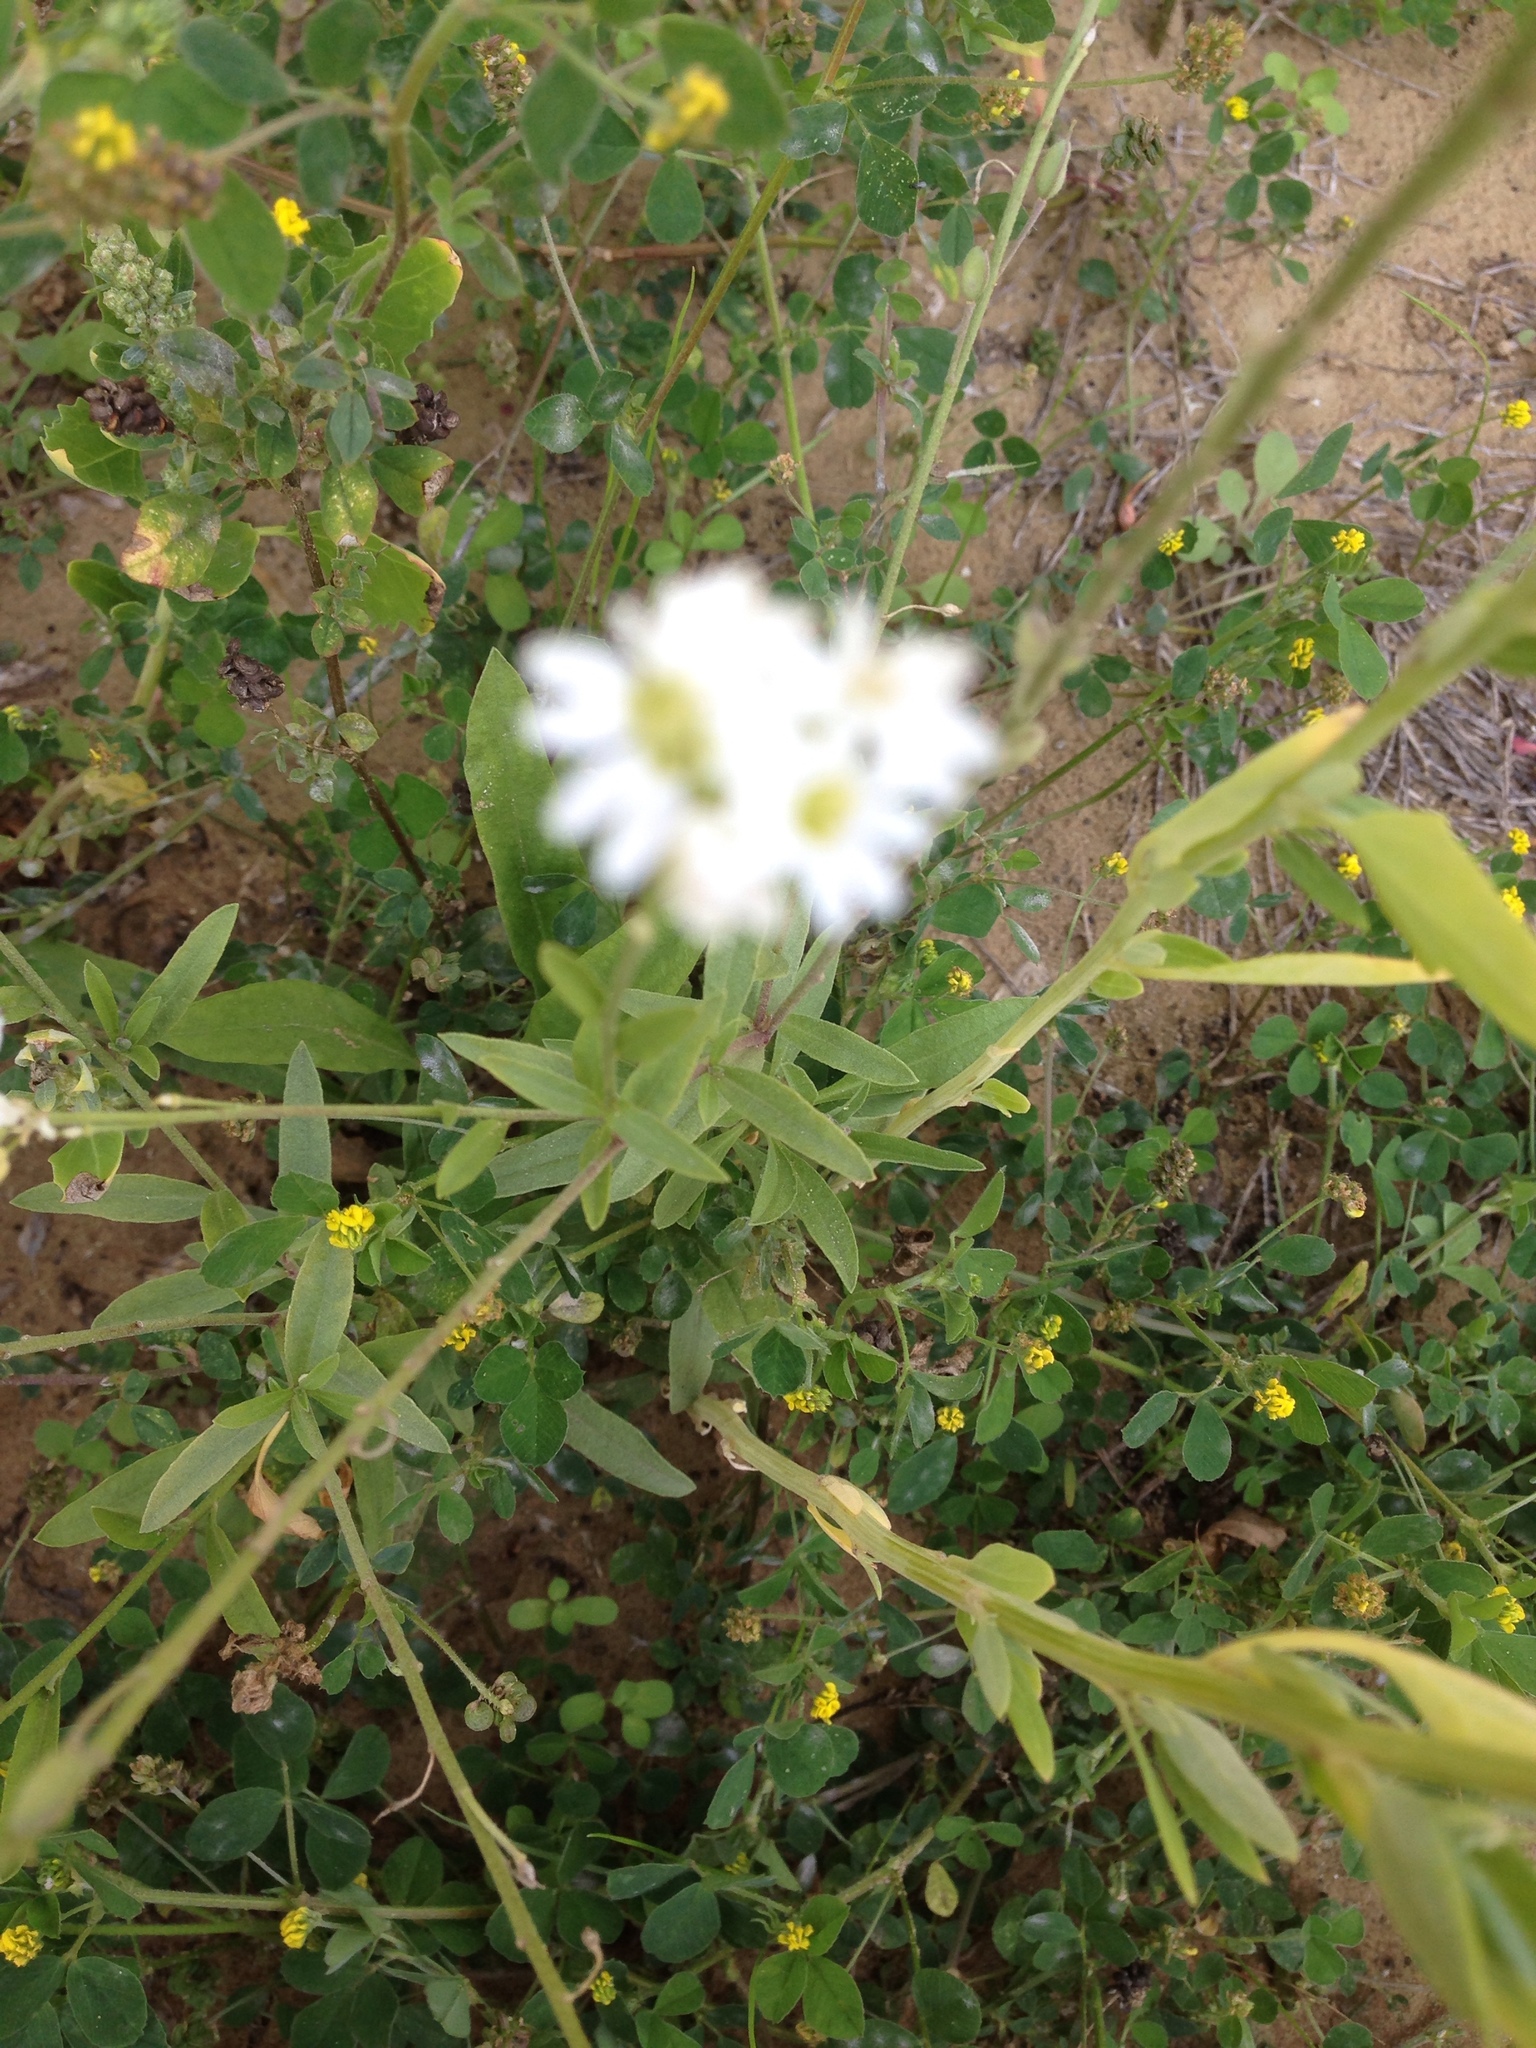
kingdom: Plantae
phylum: Tracheophyta
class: Magnoliopsida
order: Brassicales
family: Brassicaceae
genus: Berteroa
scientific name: Berteroa incana
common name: Hoary alison
